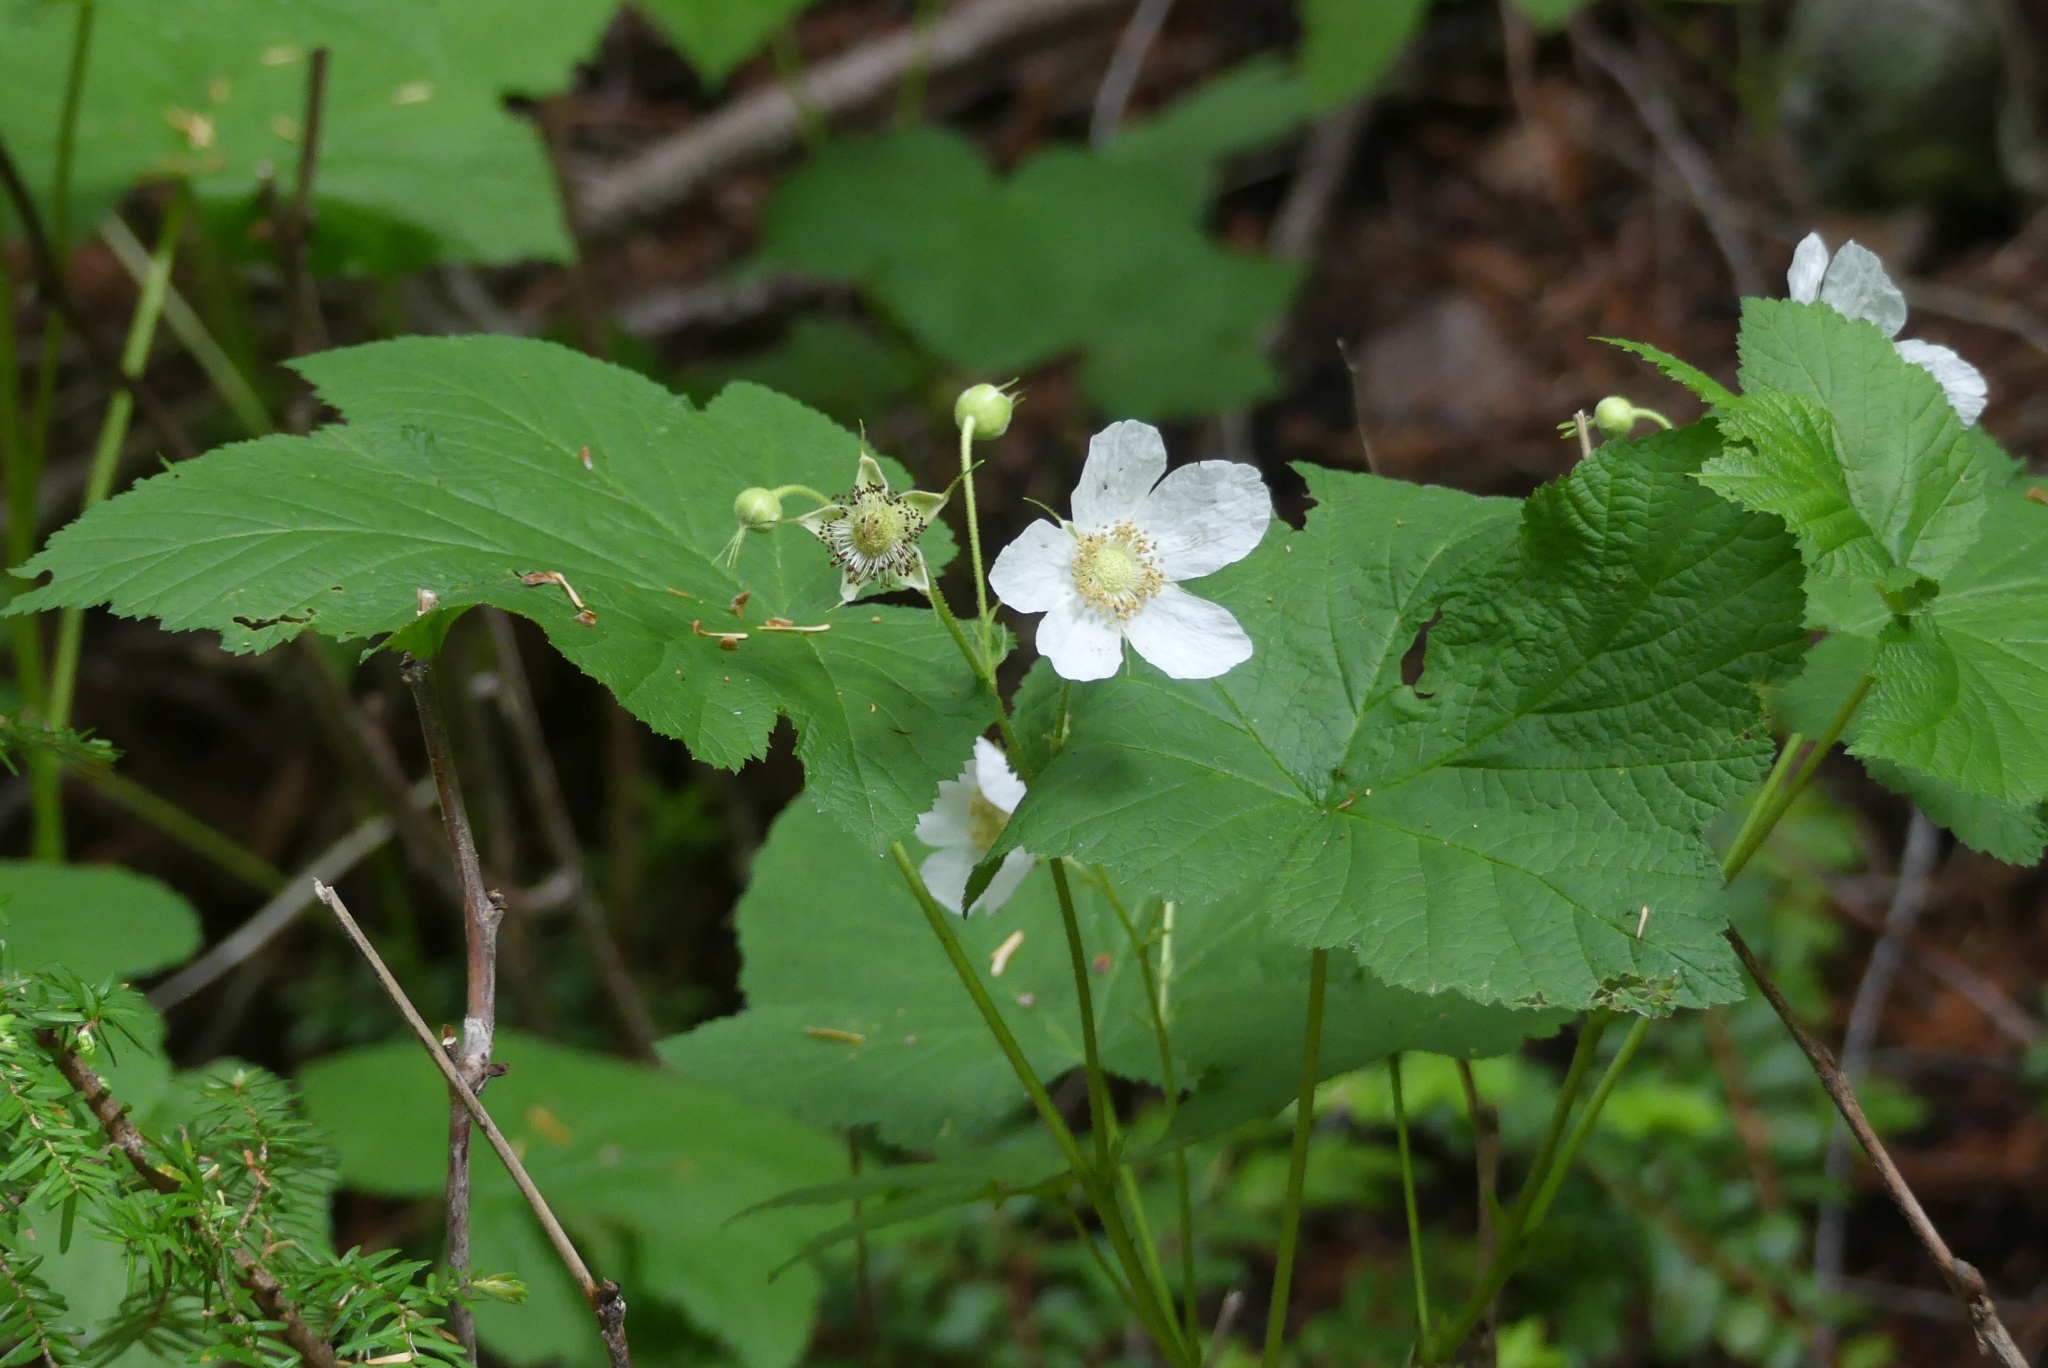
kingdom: Plantae
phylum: Tracheophyta
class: Magnoliopsida
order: Rosales
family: Rosaceae
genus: Rubus
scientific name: Rubus parviflorus
